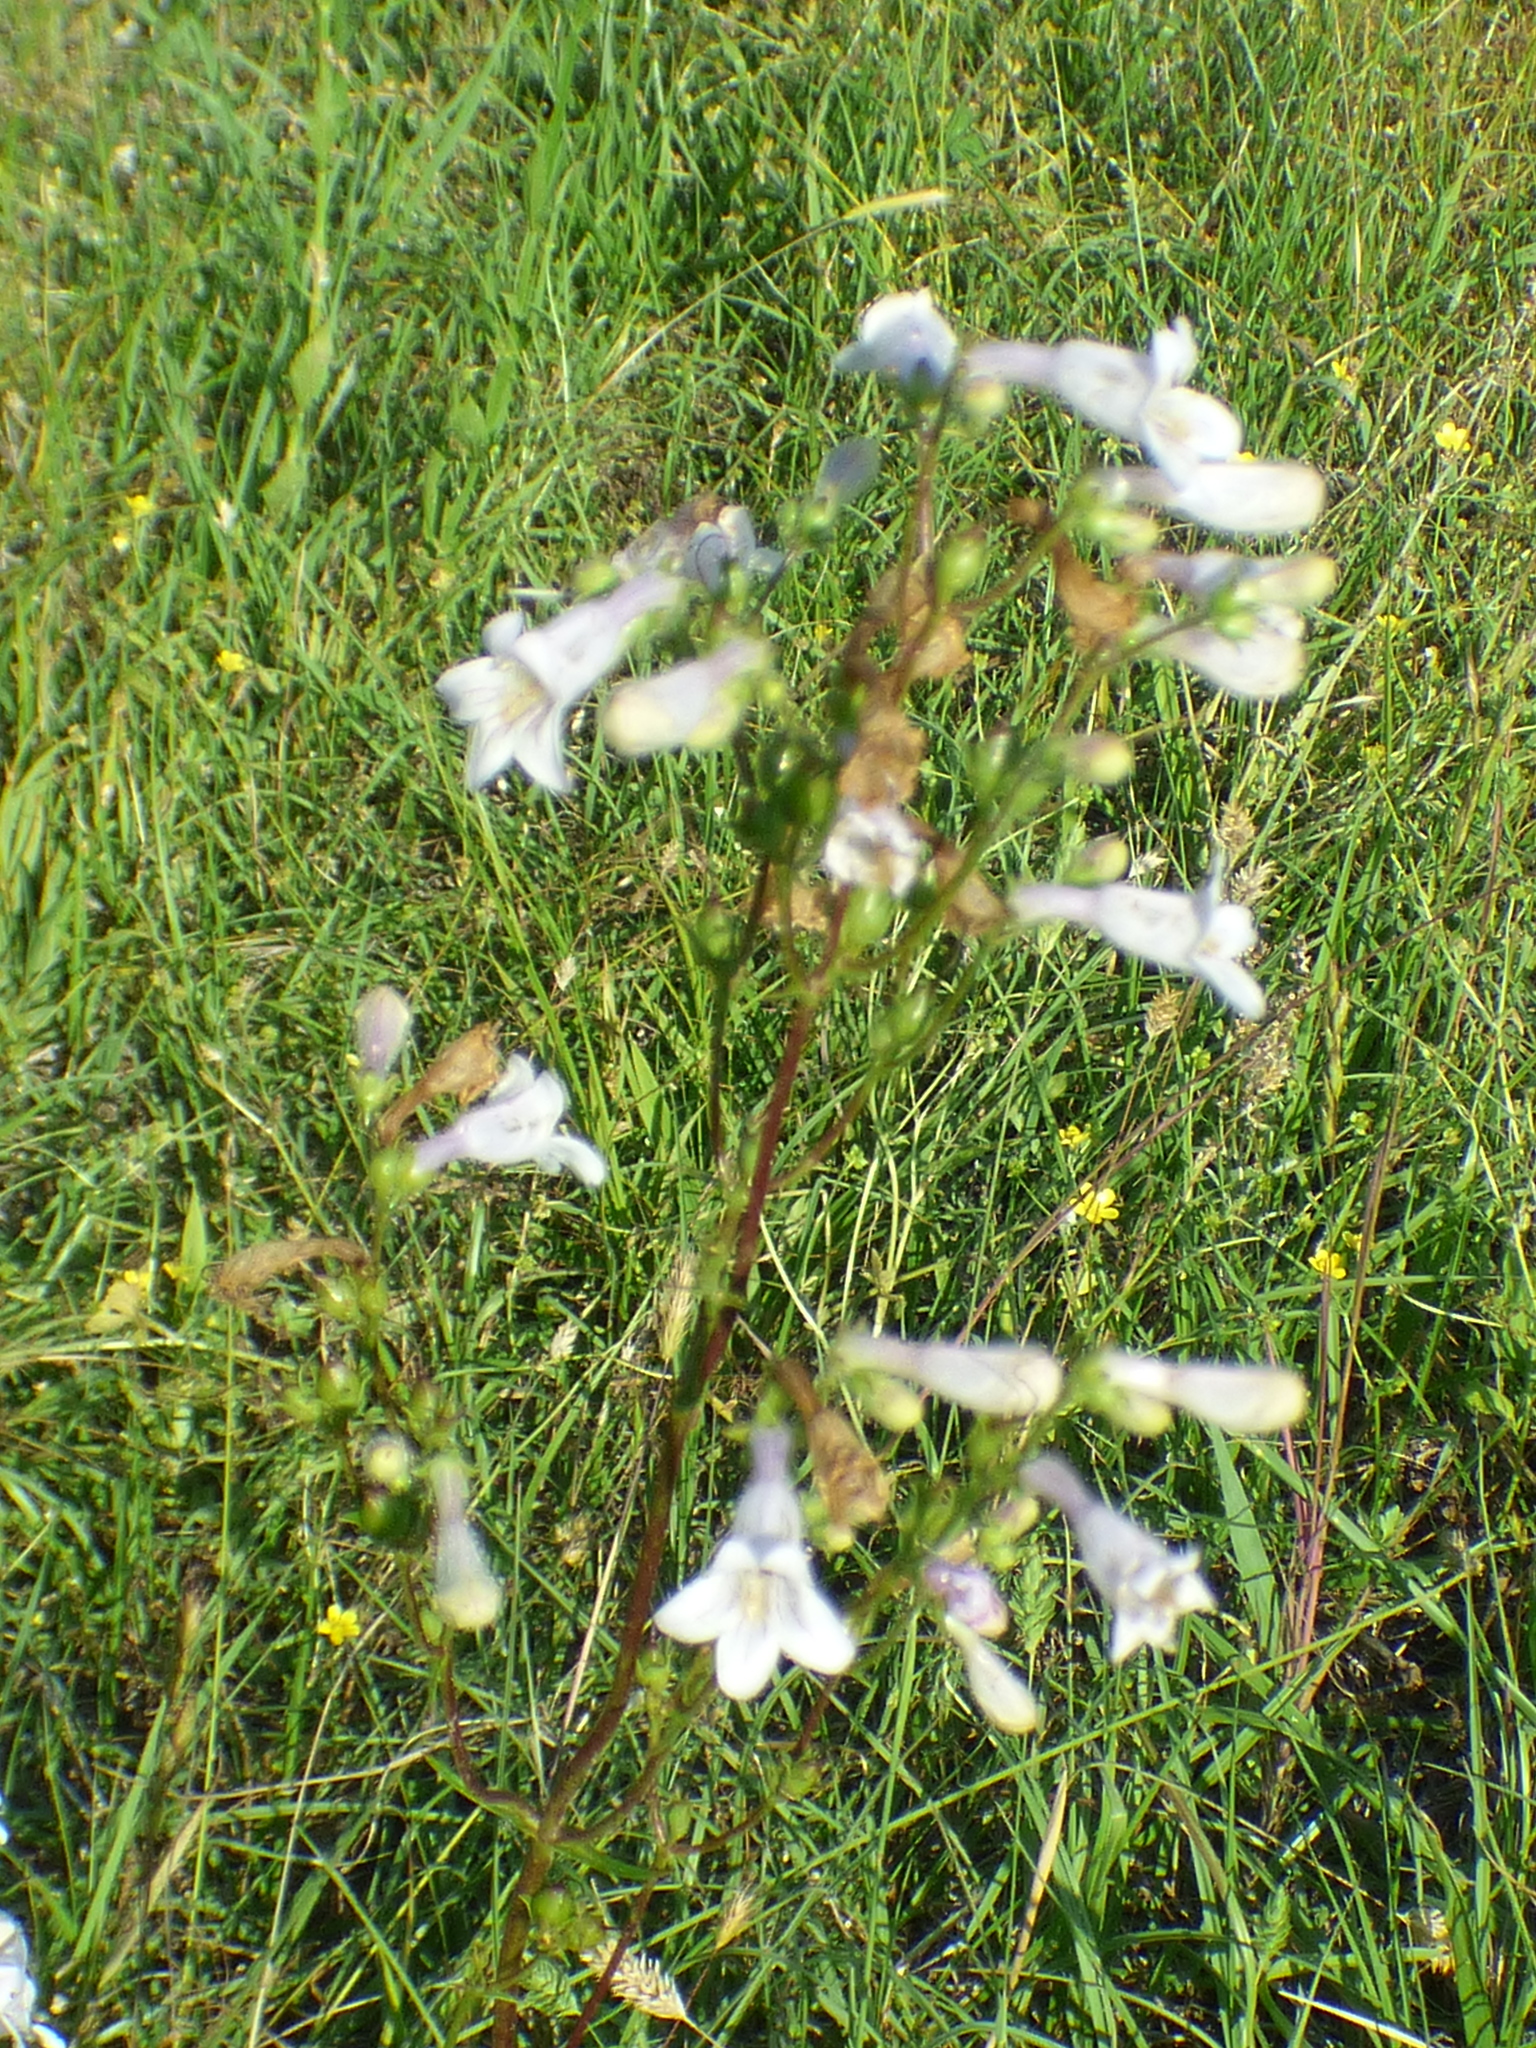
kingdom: Plantae
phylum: Tracheophyta
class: Magnoliopsida
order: Lamiales
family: Plantaginaceae
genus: Penstemon
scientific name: Penstemon digitalis
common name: Foxglove beardtongue
